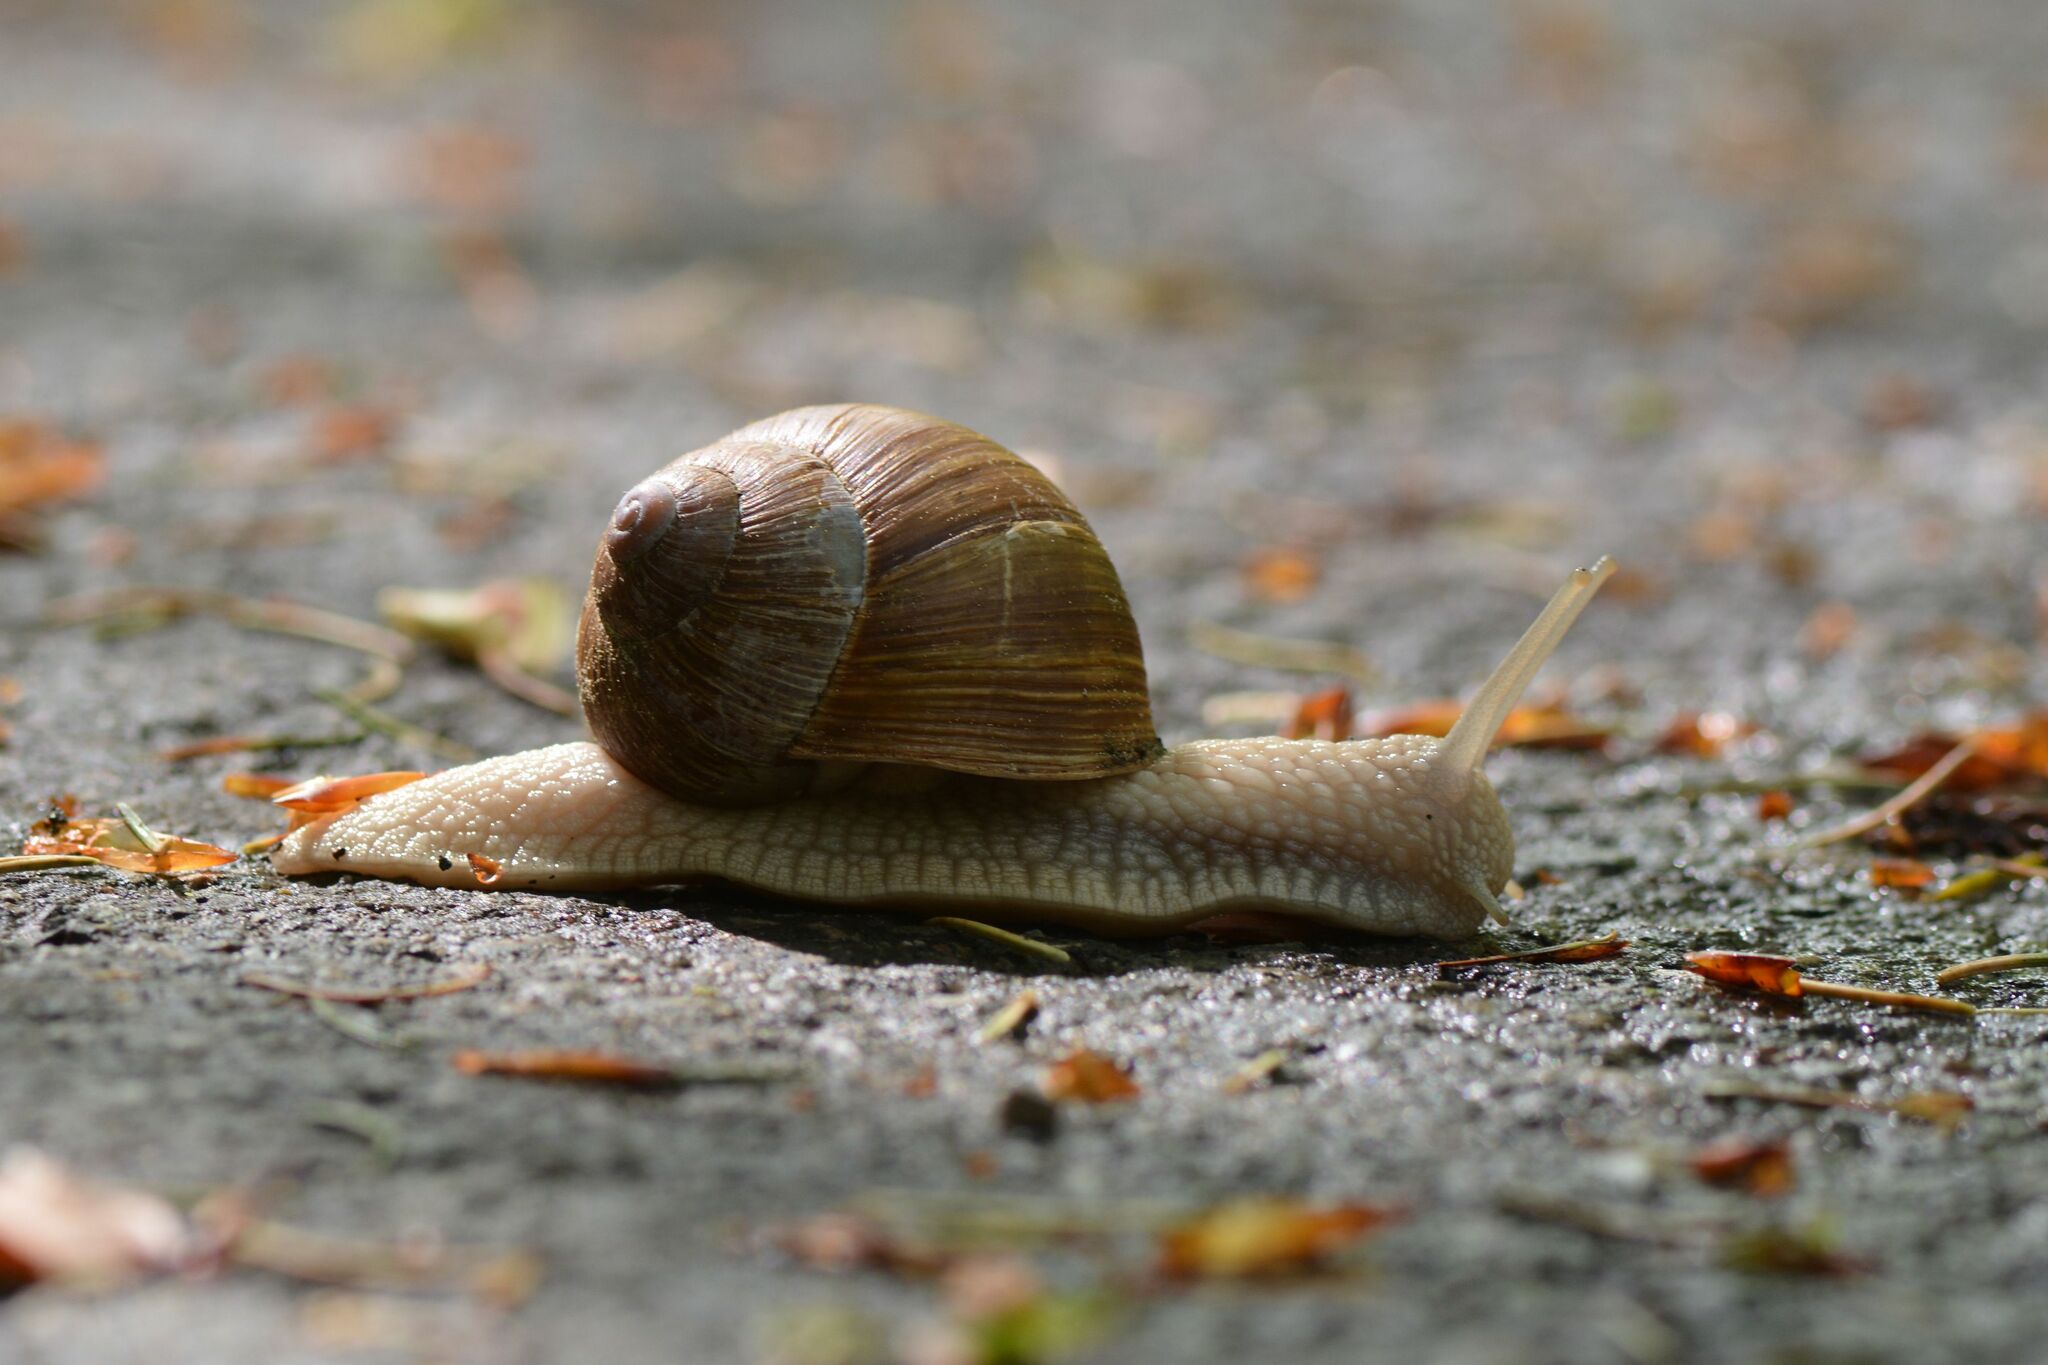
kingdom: Animalia
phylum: Mollusca
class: Gastropoda
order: Stylommatophora
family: Helicidae
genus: Helix
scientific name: Helix pomatia
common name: Roman snail
